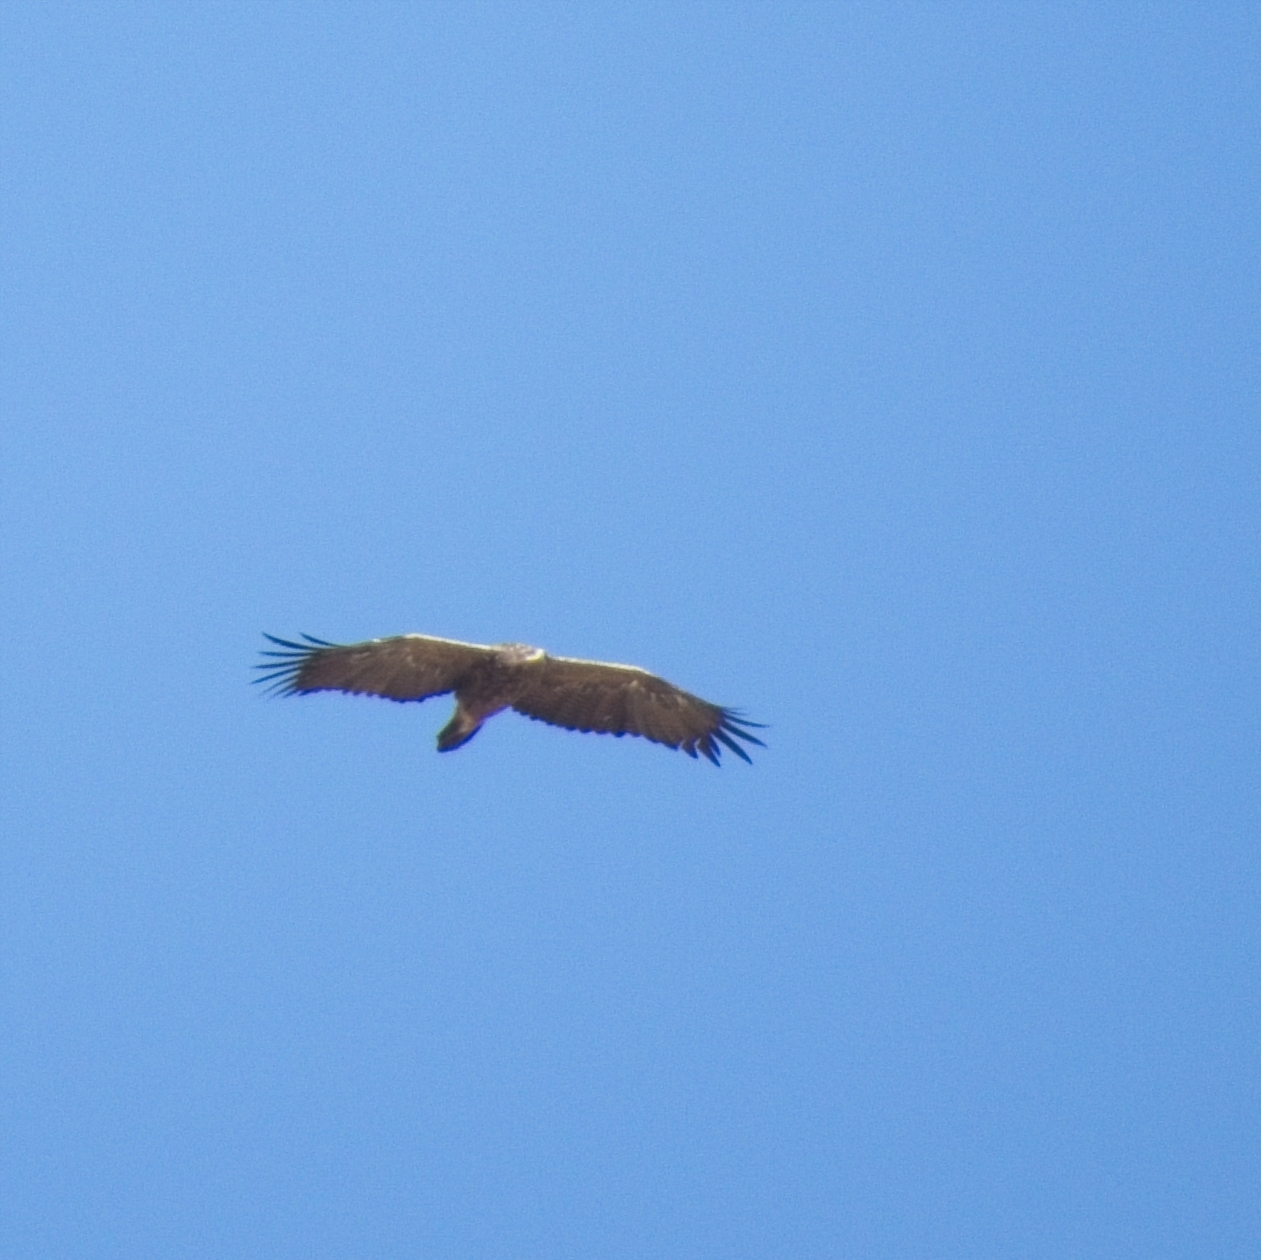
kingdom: Animalia
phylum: Chordata
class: Aves
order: Accipitriformes
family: Accipitridae
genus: Aquila
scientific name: Aquila nipalensis
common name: Steppe eagle
